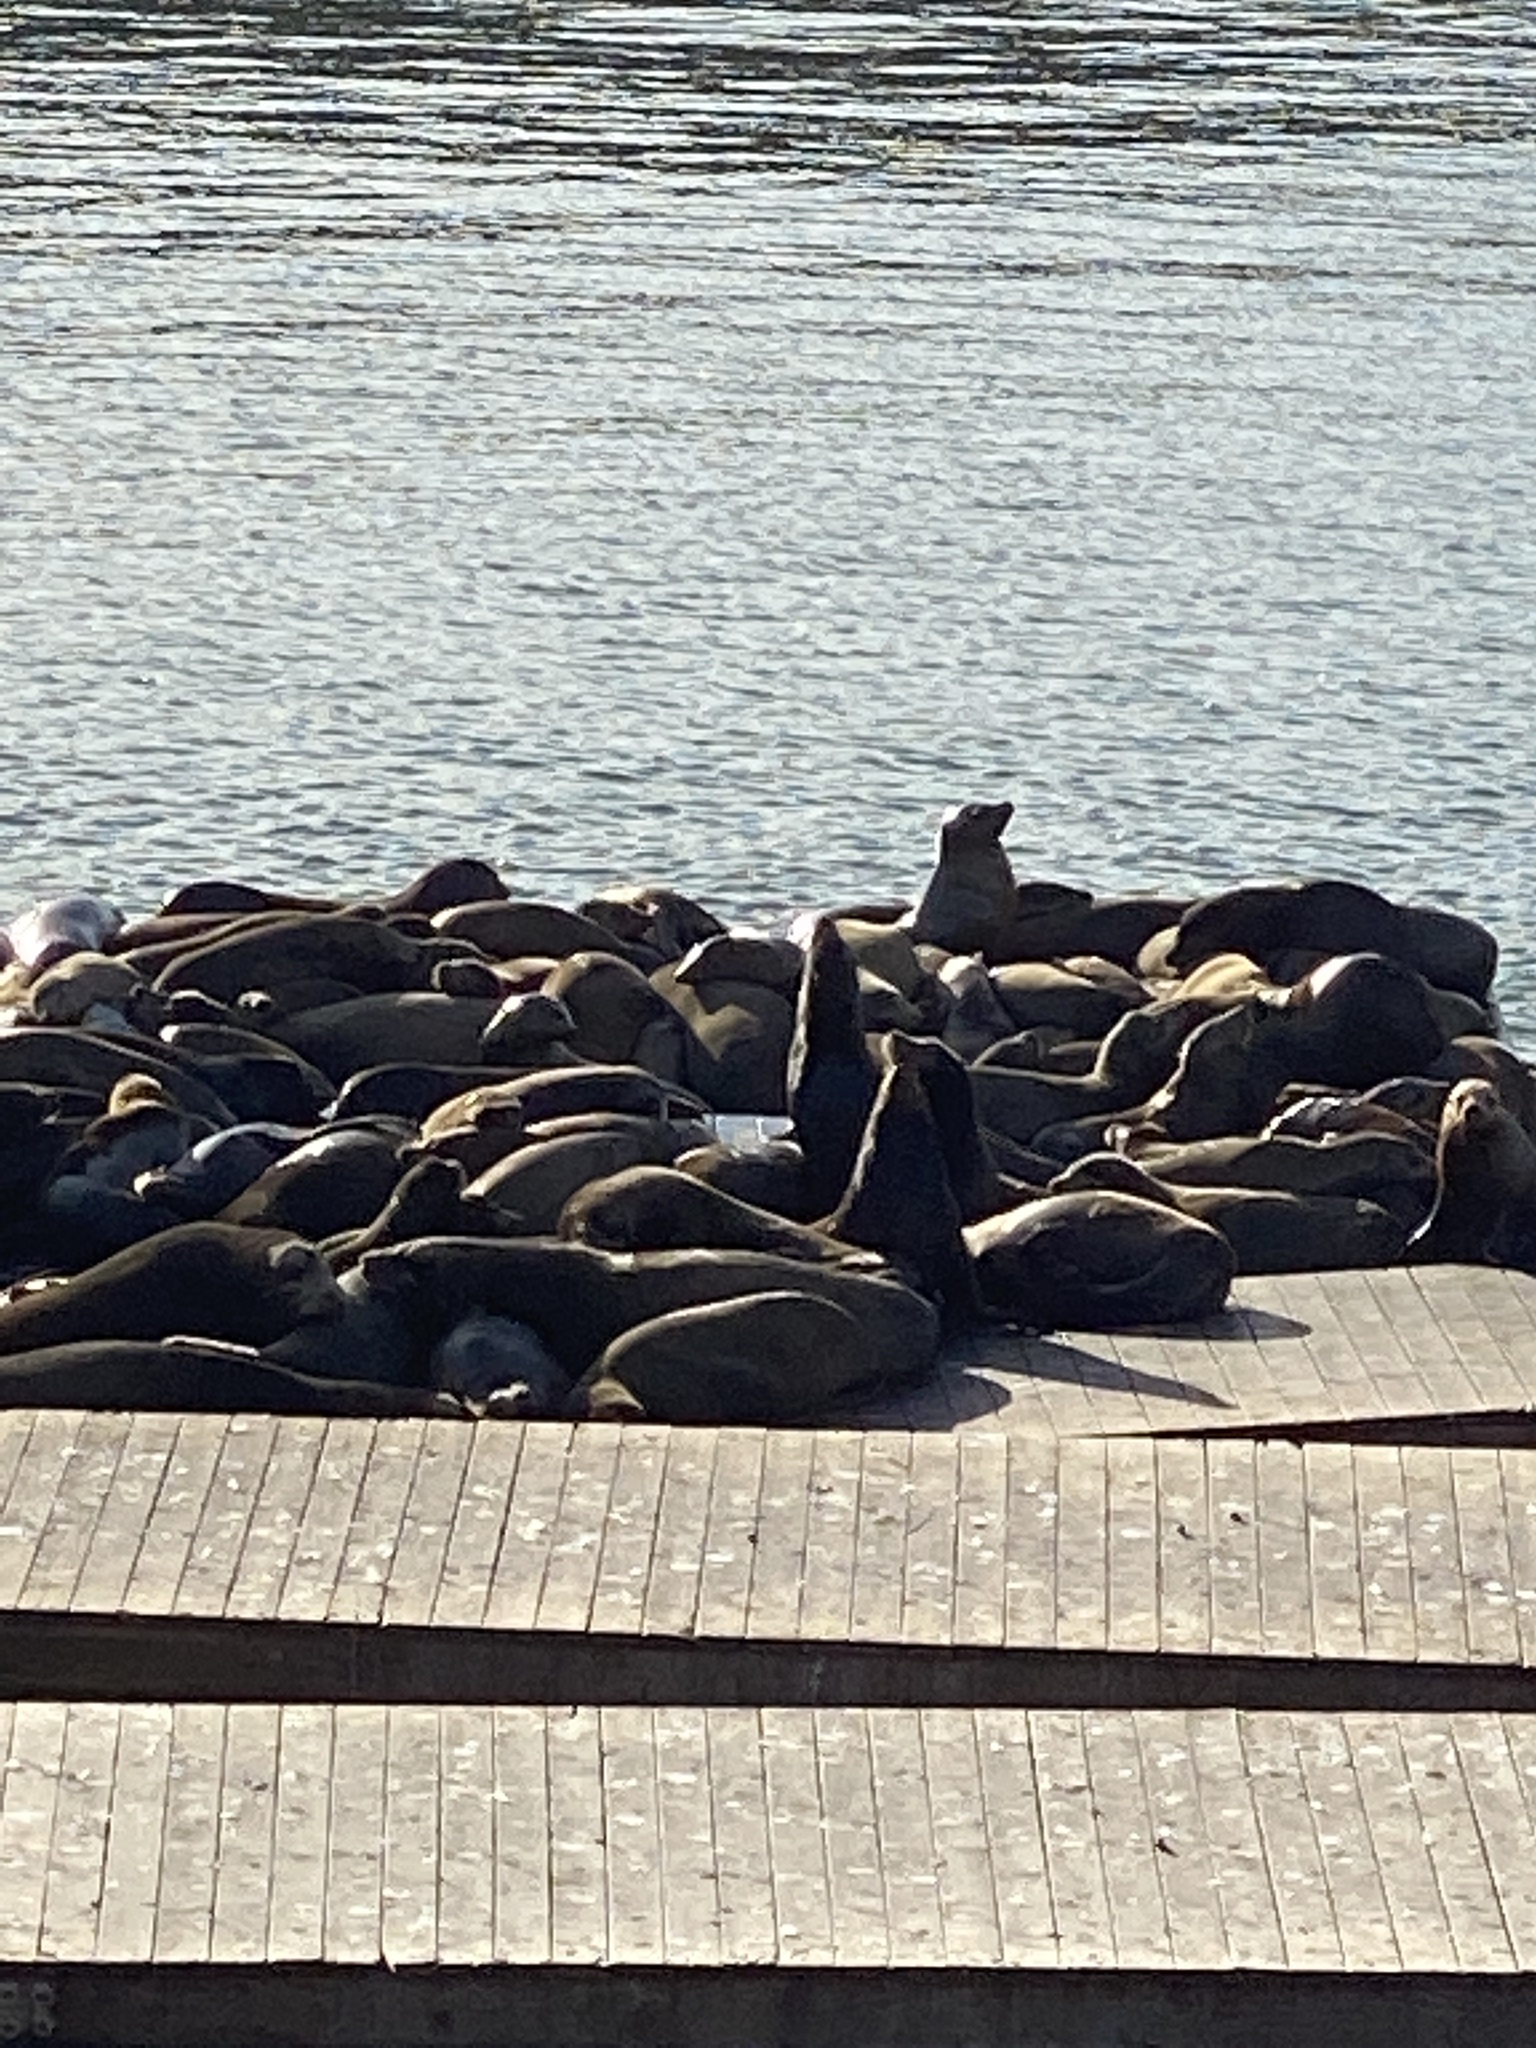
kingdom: Animalia
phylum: Chordata
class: Mammalia
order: Carnivora
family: Otariidae
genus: Zalophus
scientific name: Zalophus californianus
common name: California sea lion
